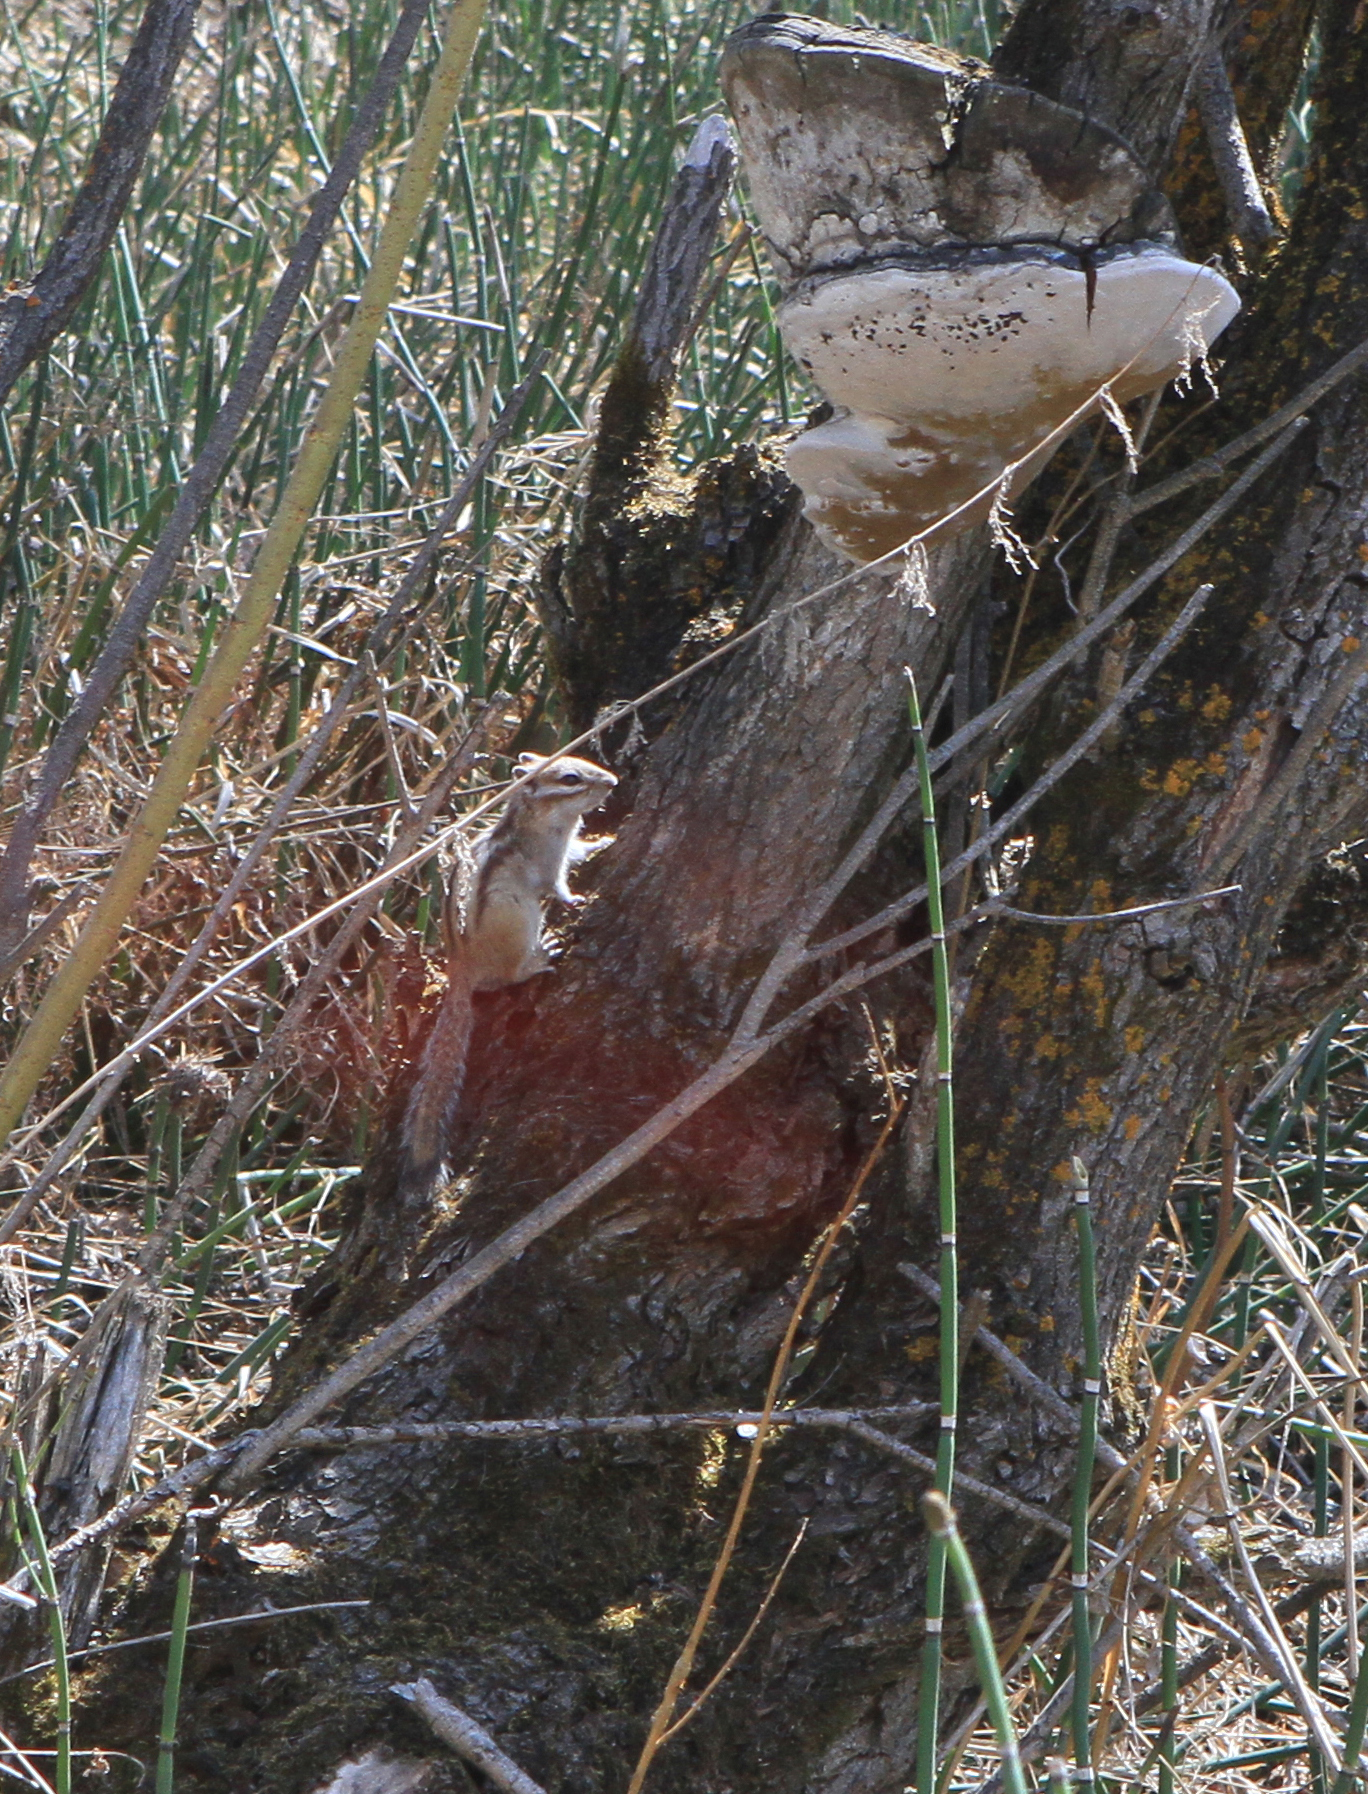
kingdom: Animalia
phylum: Chordata
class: Mammalia
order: Rodentia
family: Sciuridae
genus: Tamias
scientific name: Tamias sibiricus
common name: Siberian chipmunk
